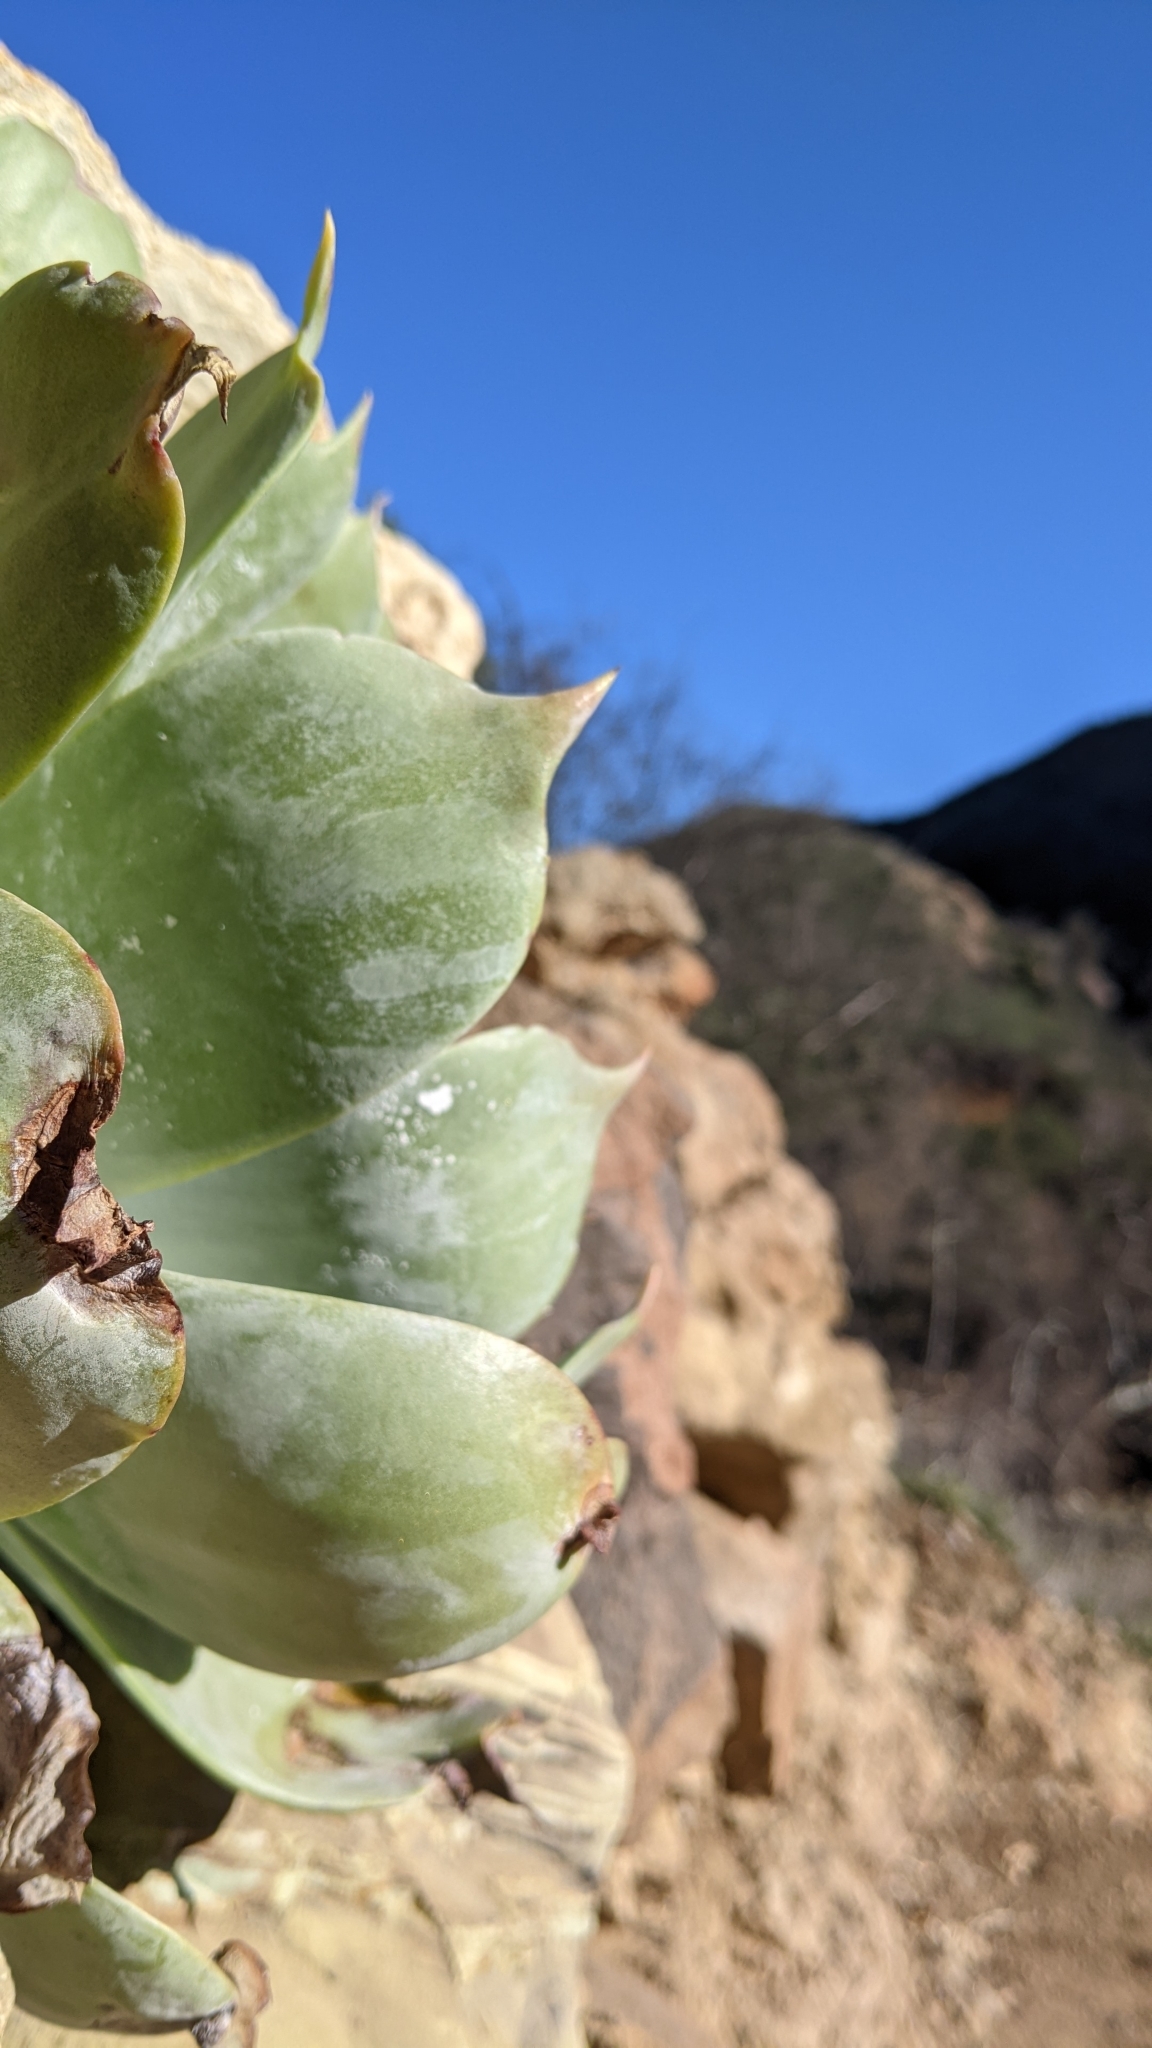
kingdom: Plantae
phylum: Tracheophyta
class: Magnoliopsida
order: Saxifragales
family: Crassulaceae
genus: Dudleya
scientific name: Dudleya pulverulenta
